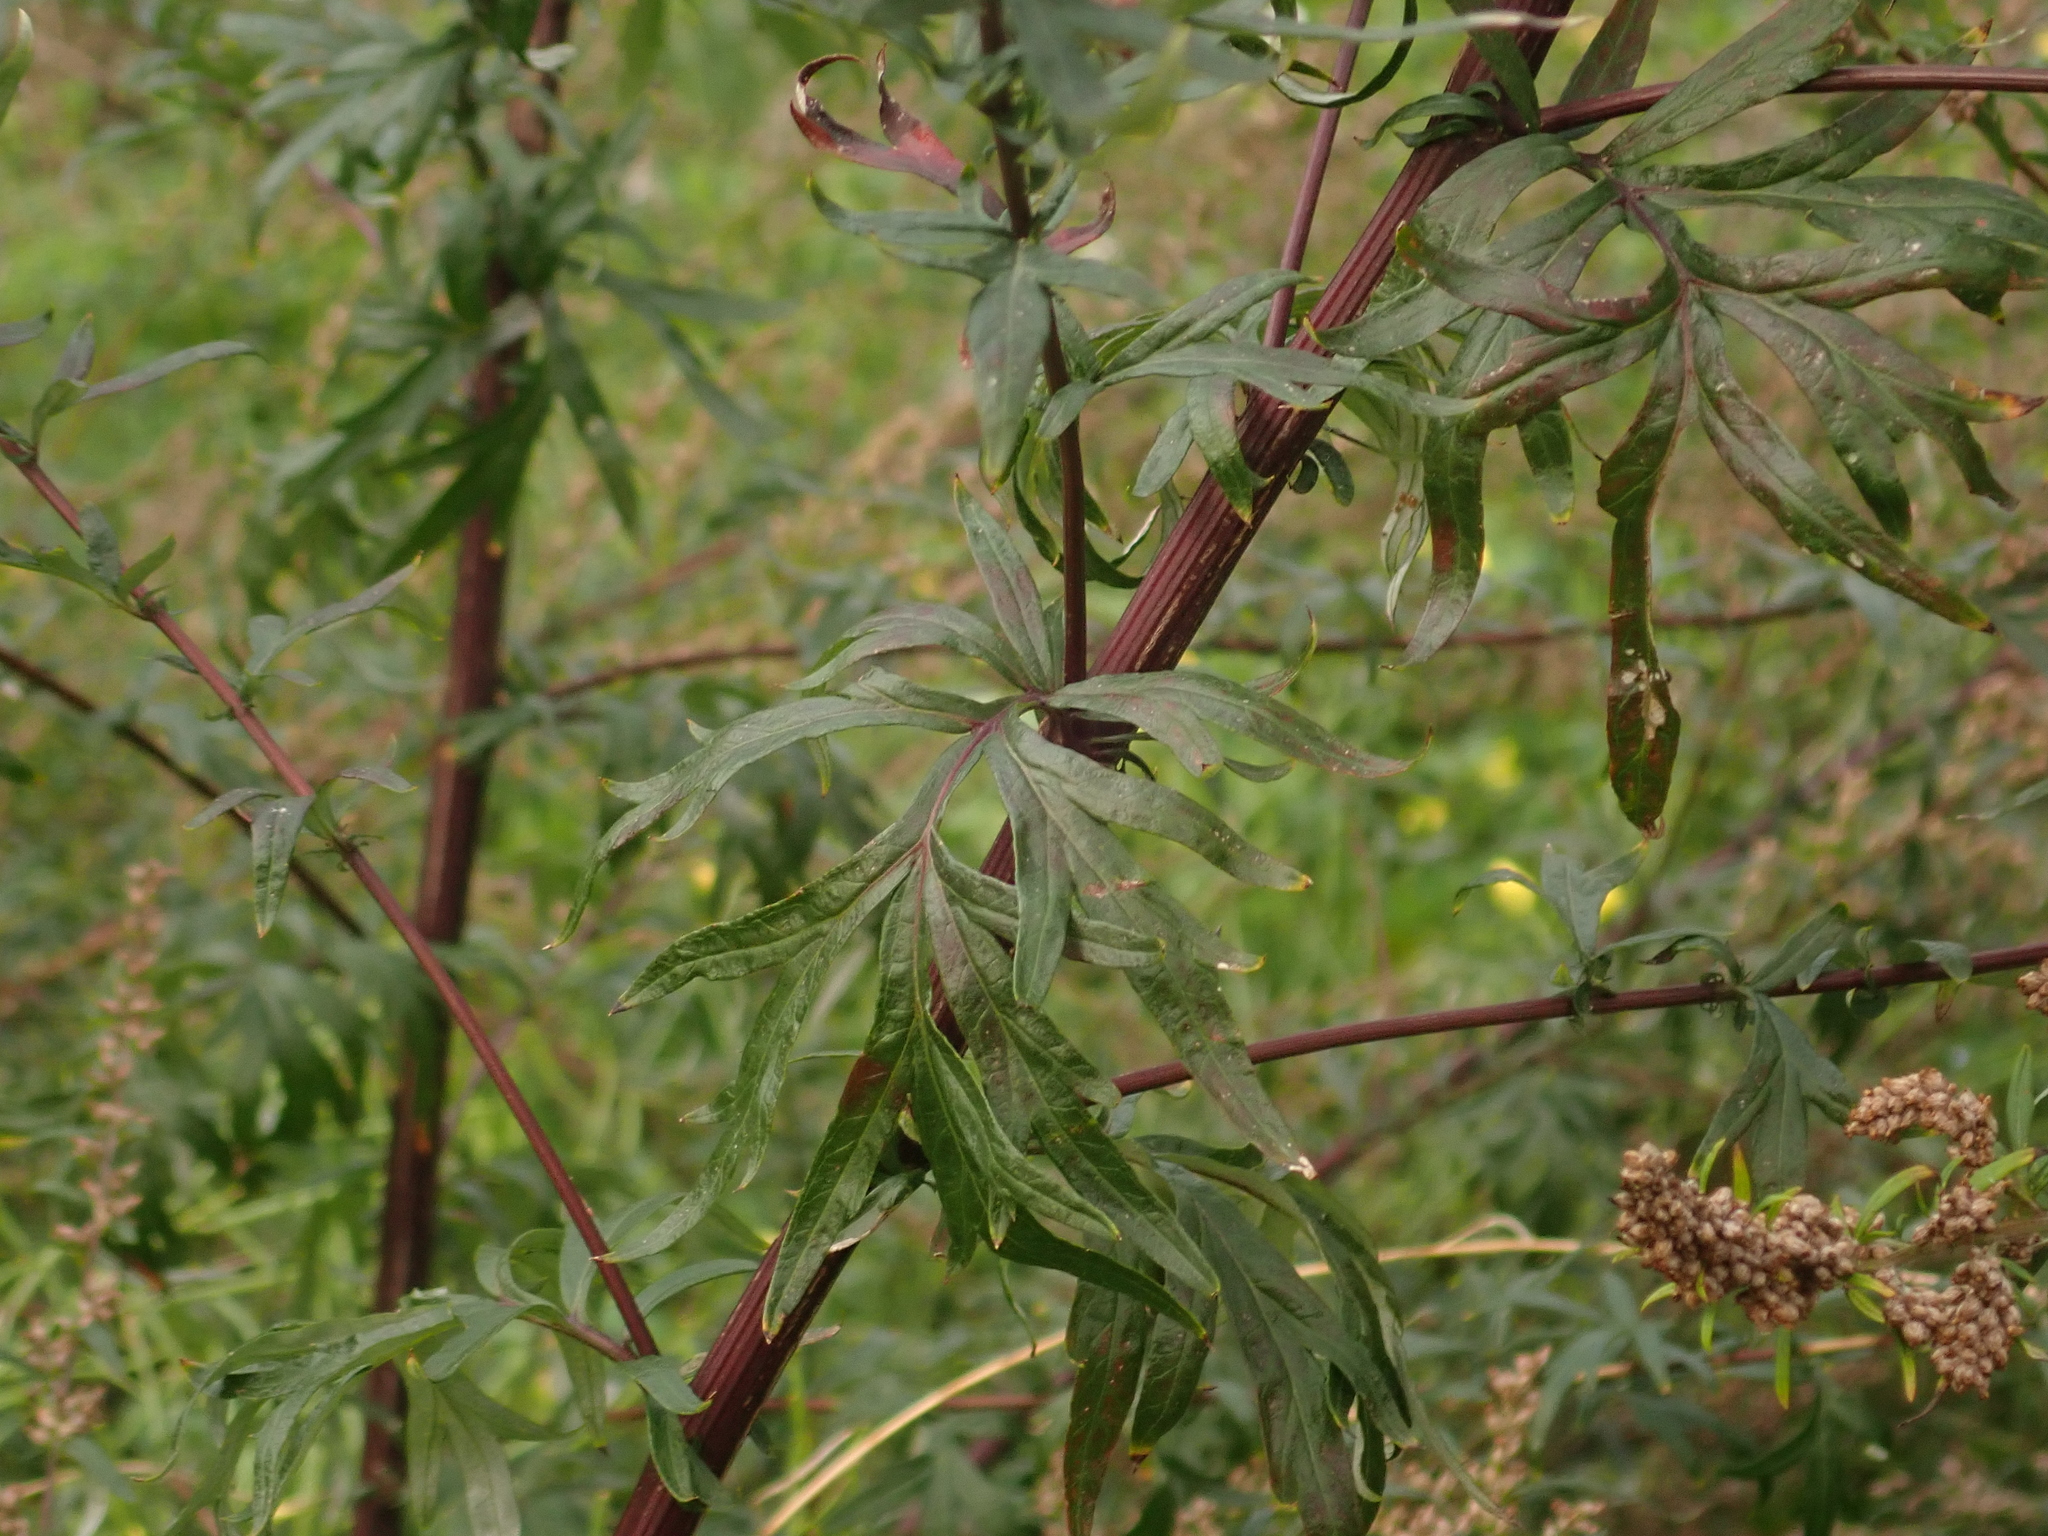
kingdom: Plantae
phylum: Tracheophyta
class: Magnoliopsida
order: Asterales
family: Asteraceae
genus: Artemisia
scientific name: Artemisia vulgaris
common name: Mugwort
